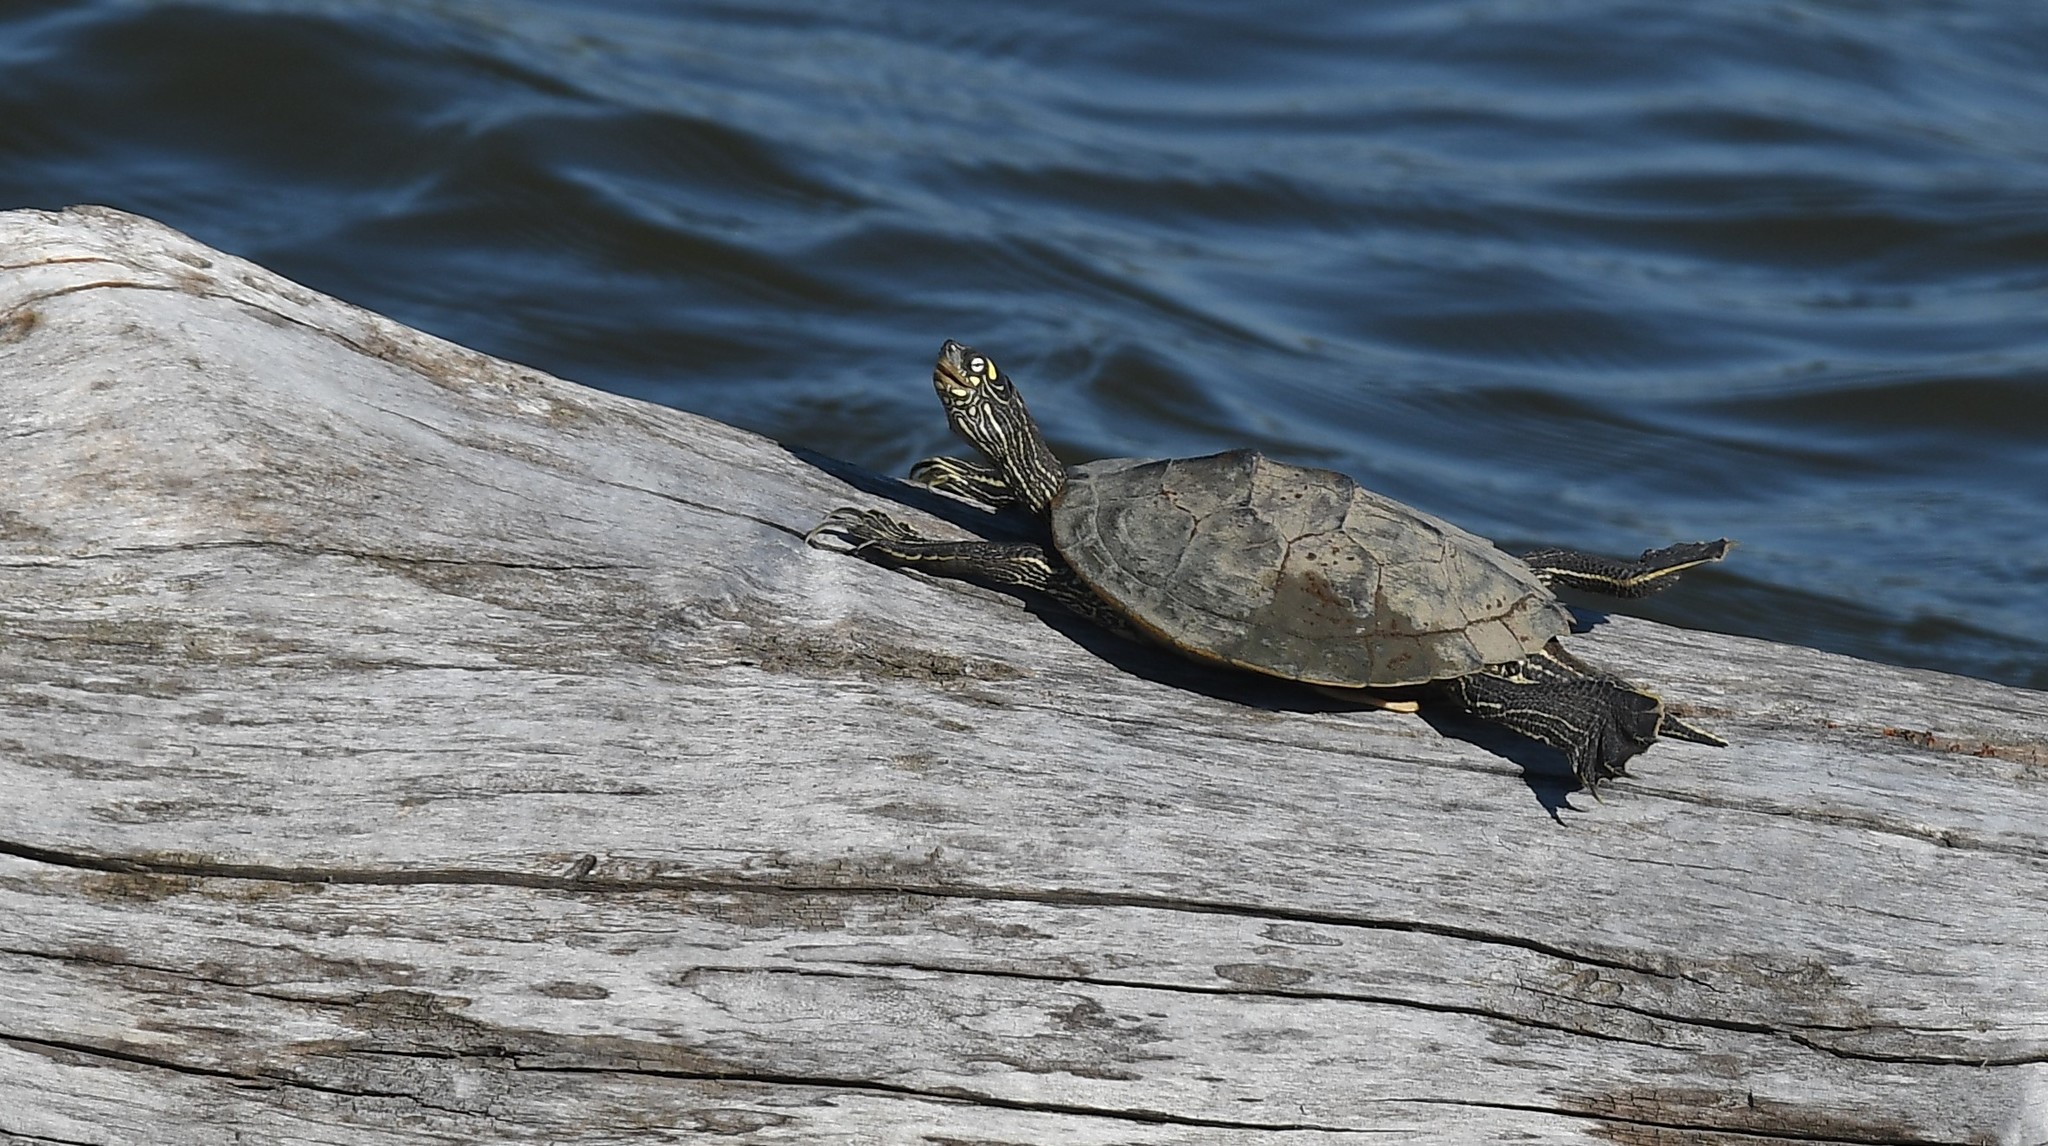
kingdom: Animalia
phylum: Chordata
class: Testudines
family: Emydidae
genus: Graptemys
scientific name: Graptemys ouachitensis
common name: Ouachita map turtle
